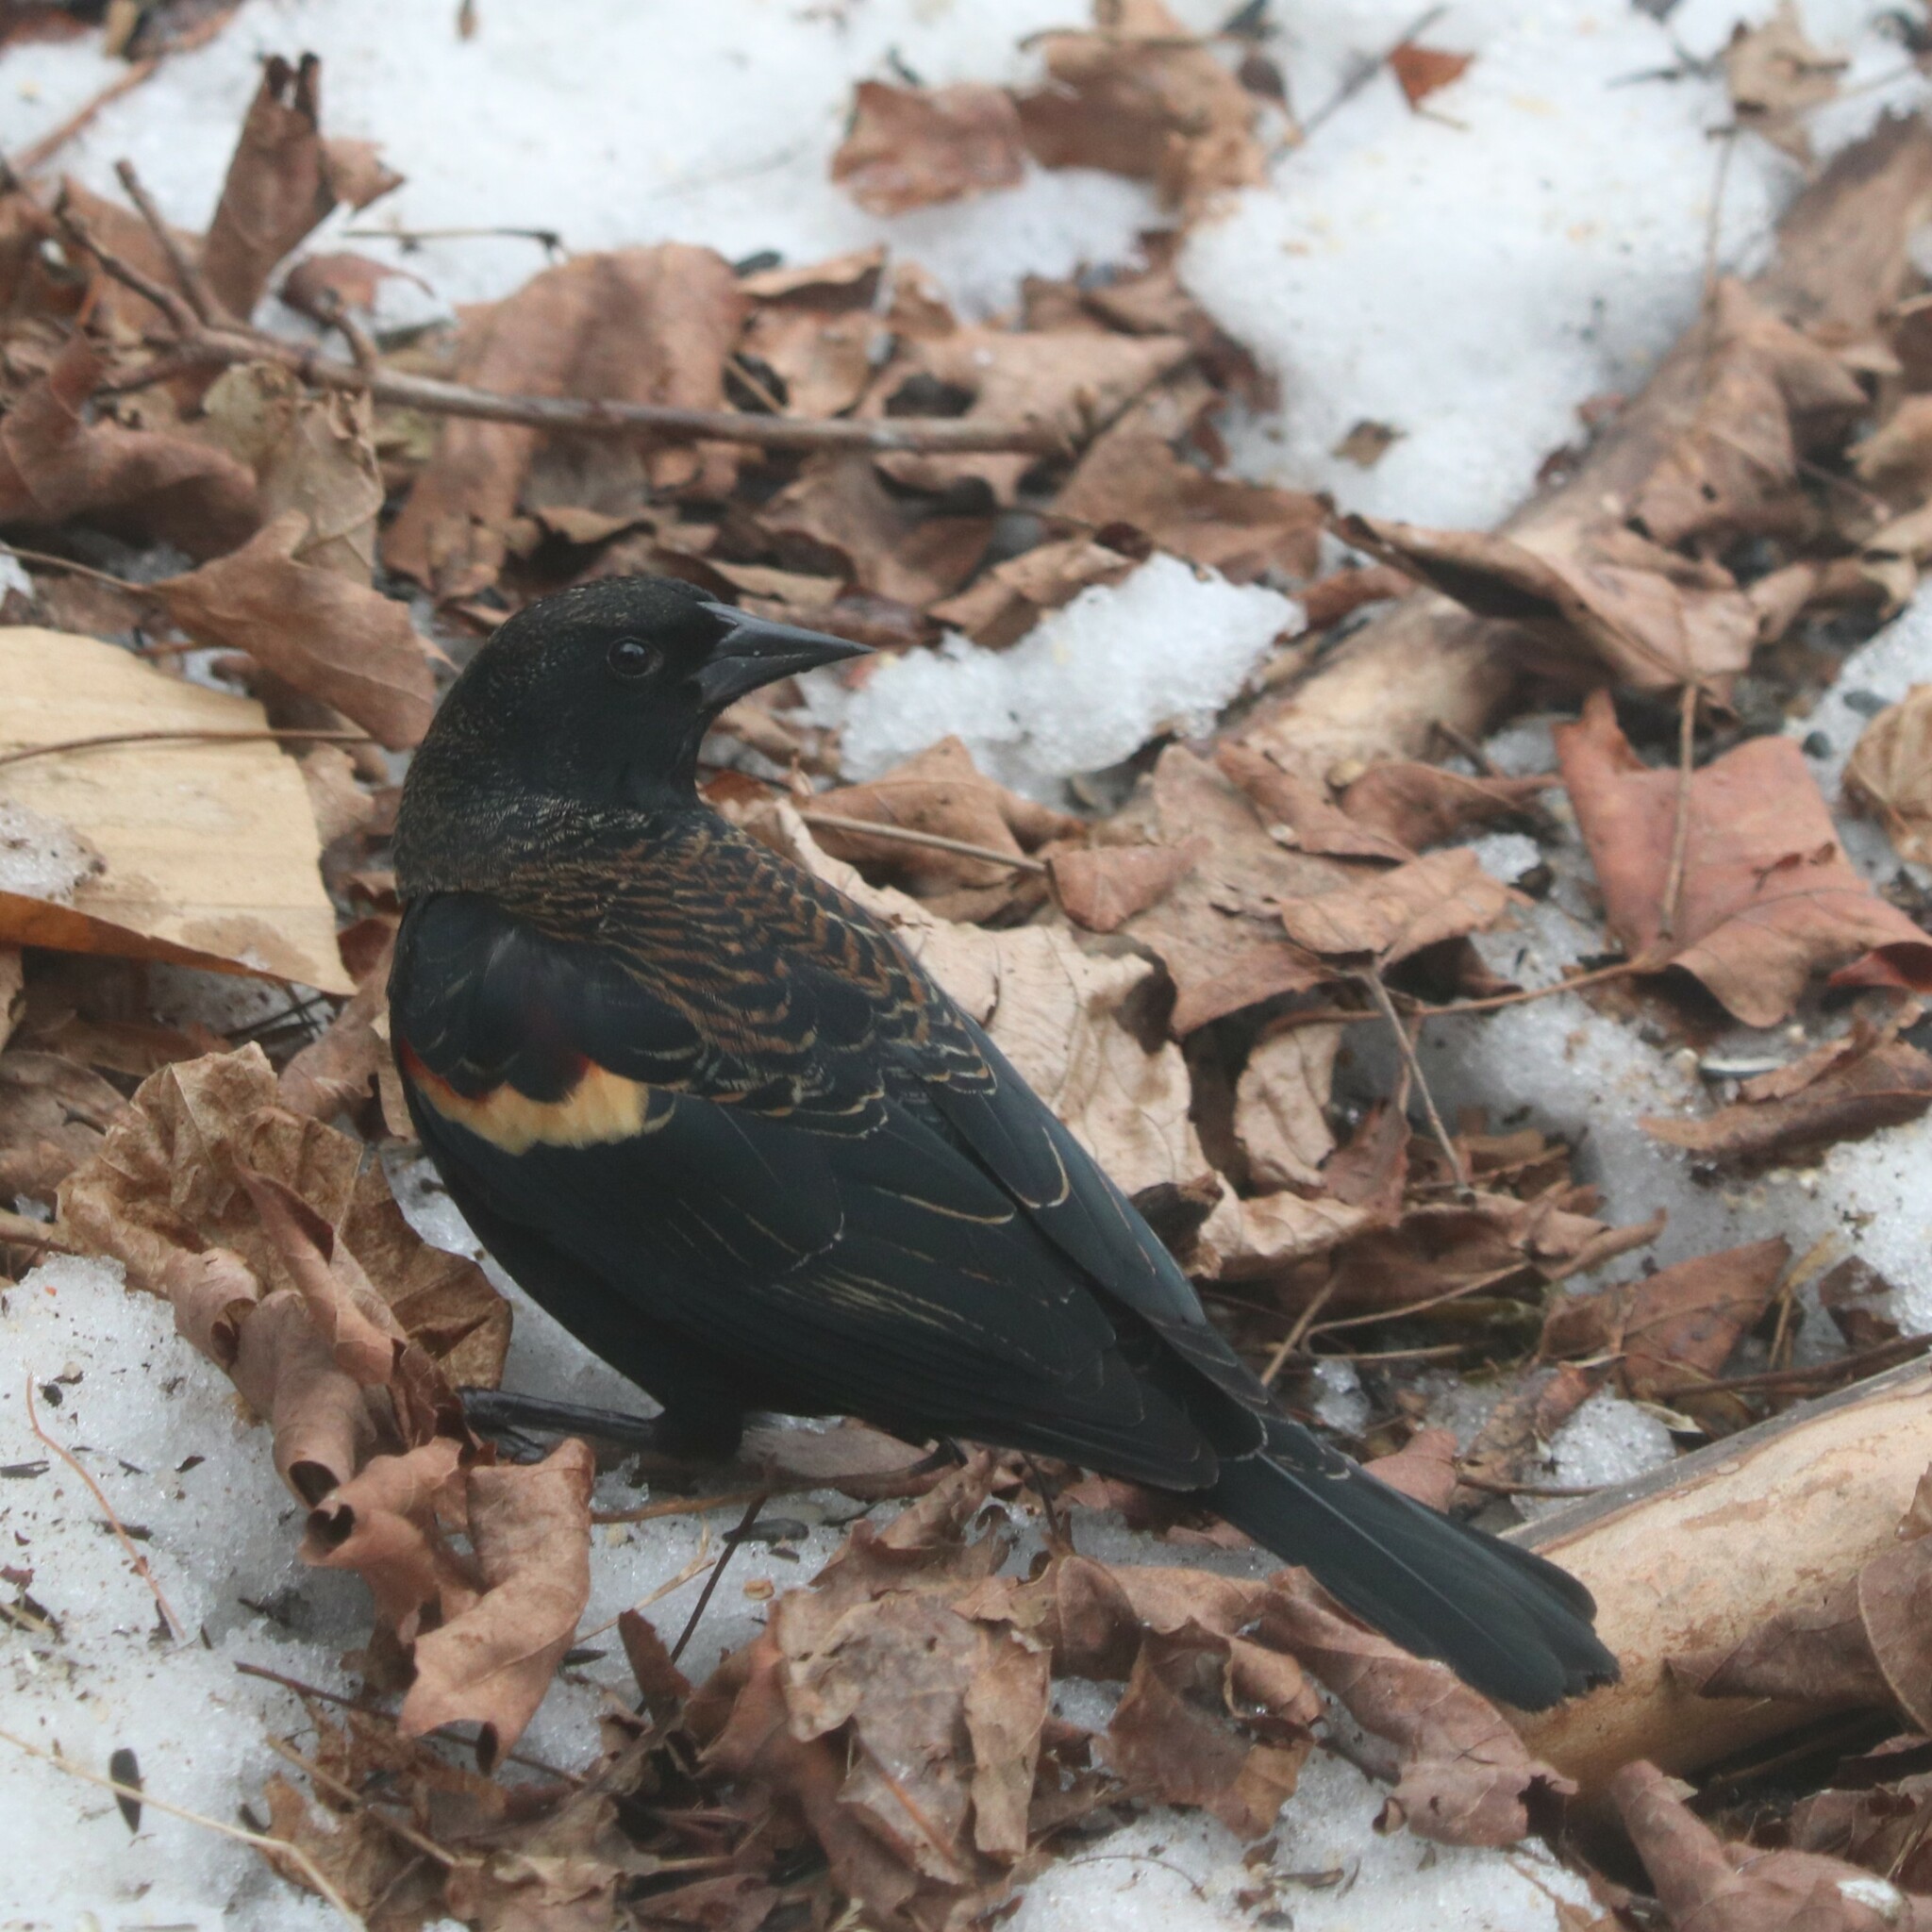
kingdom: Animalia
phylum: Chordata
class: Aves
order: Passeriformes
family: Icteridae
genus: Agelaius
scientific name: Agelaius phoeniceus
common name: Red-winged blackbird
